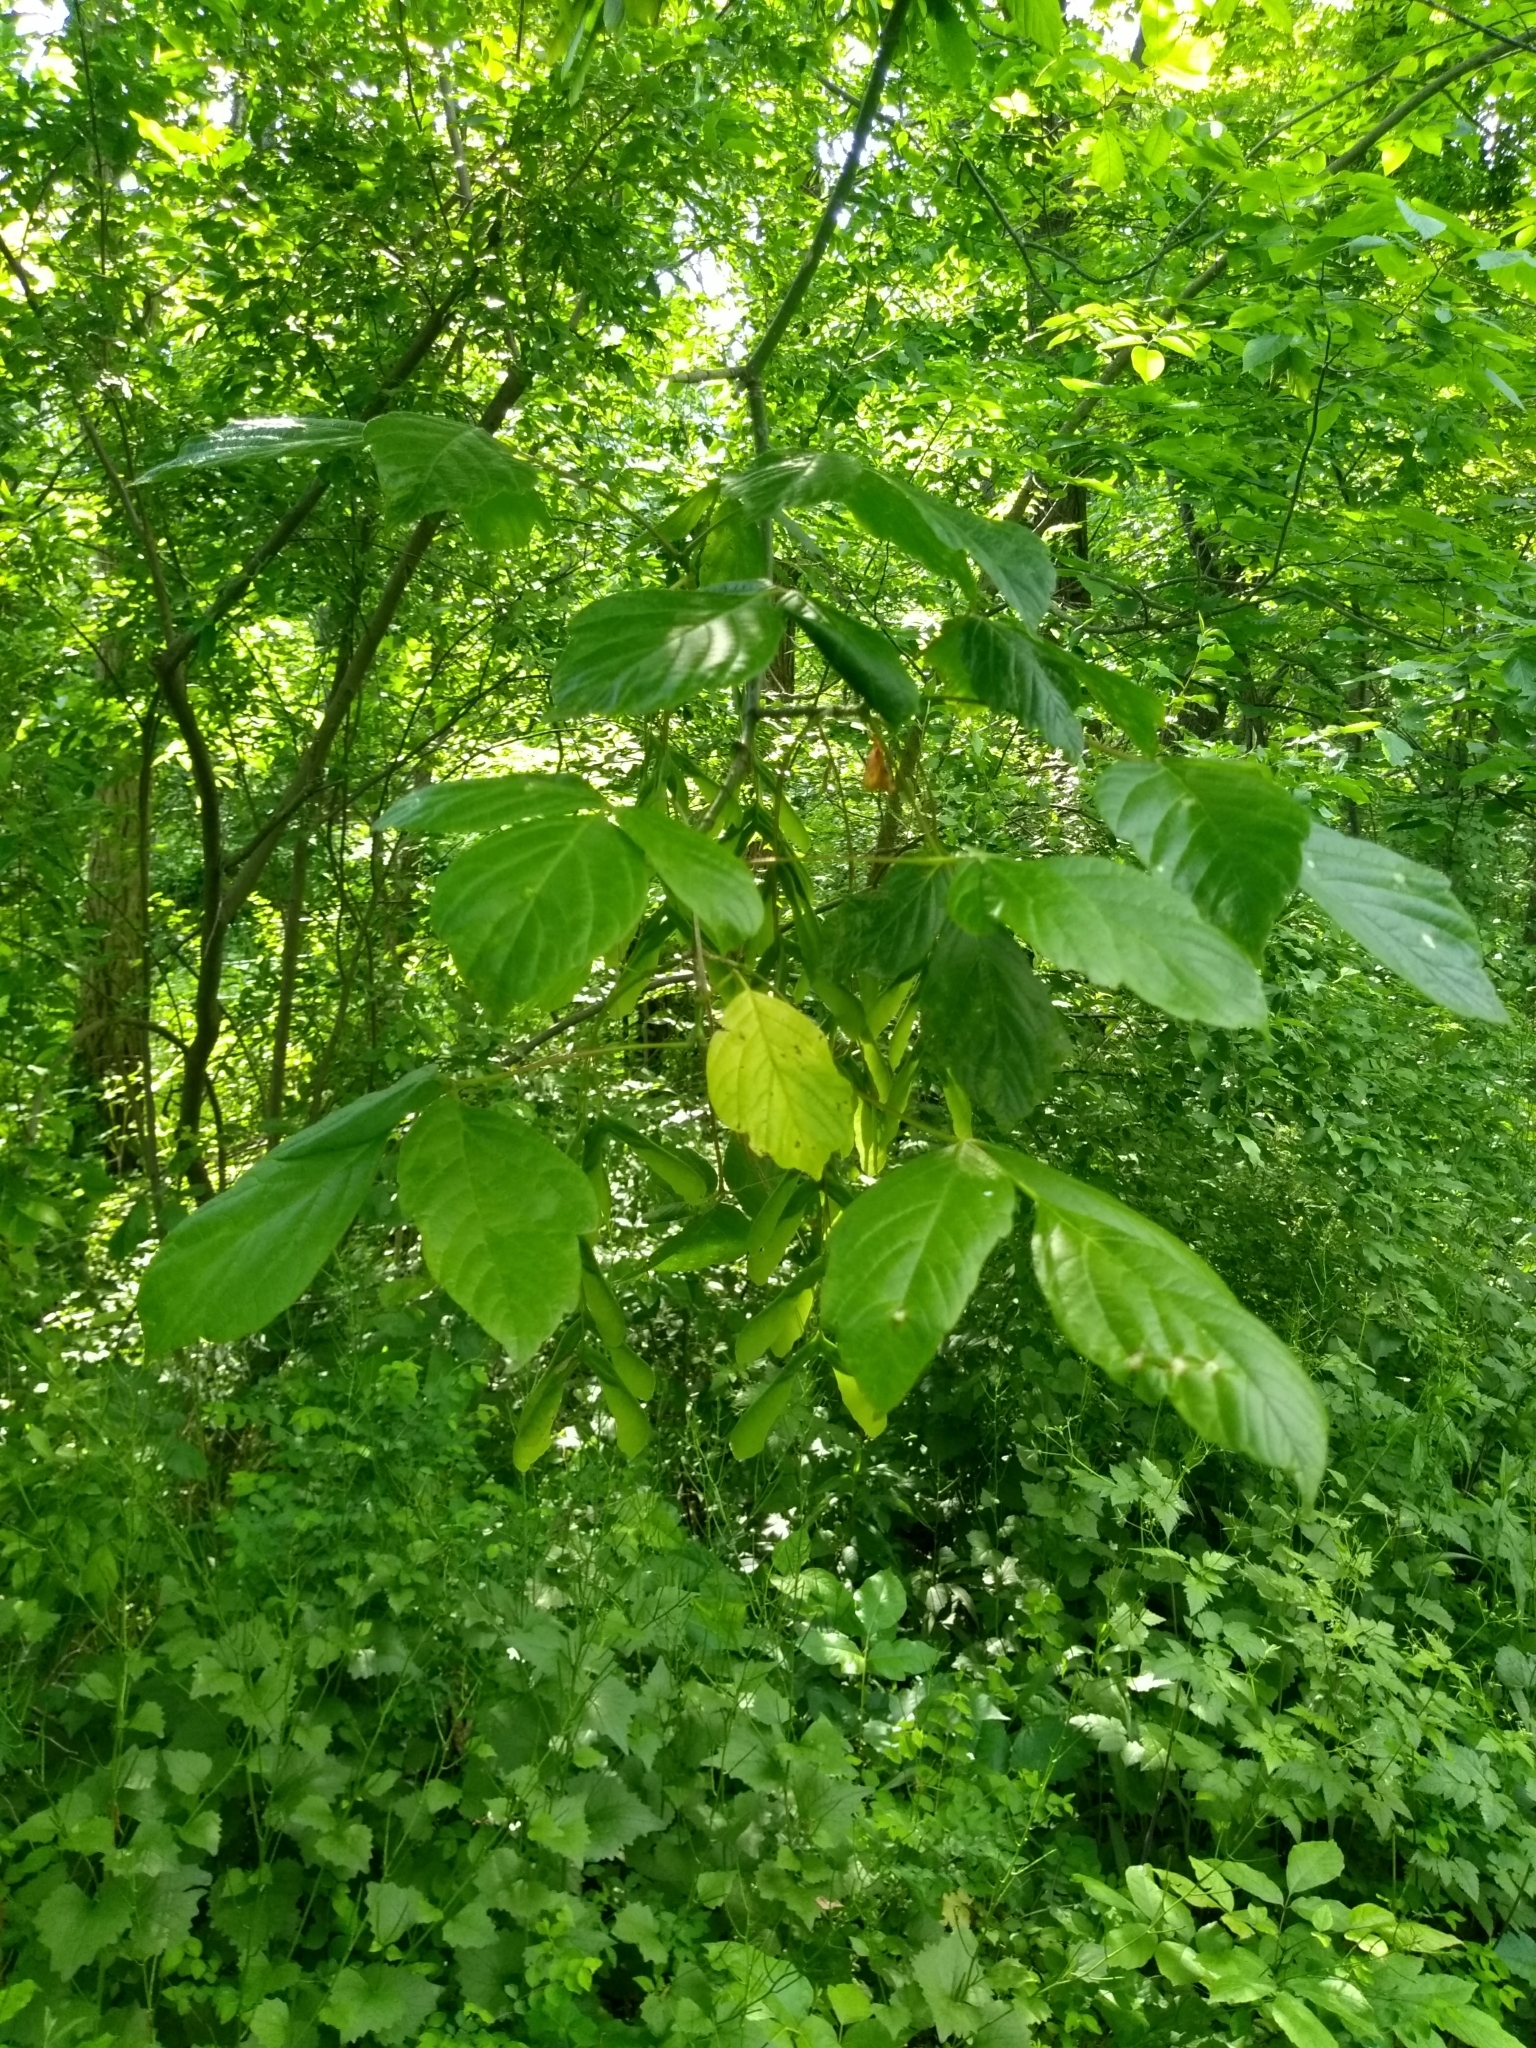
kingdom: Plantae
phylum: Tracheophyta
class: Magnoliopsida
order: Sapindales
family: Sapindaceae
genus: Acer
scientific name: Acer negundo
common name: Ashleaf maple
